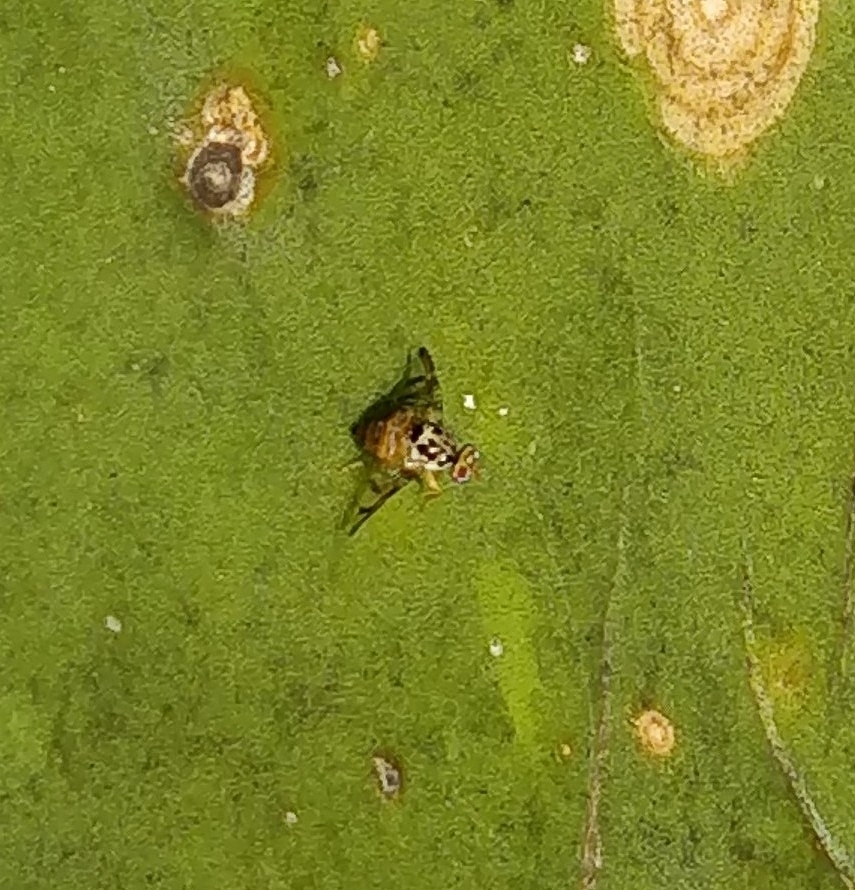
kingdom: Animalia
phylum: Arthropoda
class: Insecta
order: Diptera
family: Tephritidae
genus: Ceratitis
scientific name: Ceratitis capitata
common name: Mediterranean fruit fly
